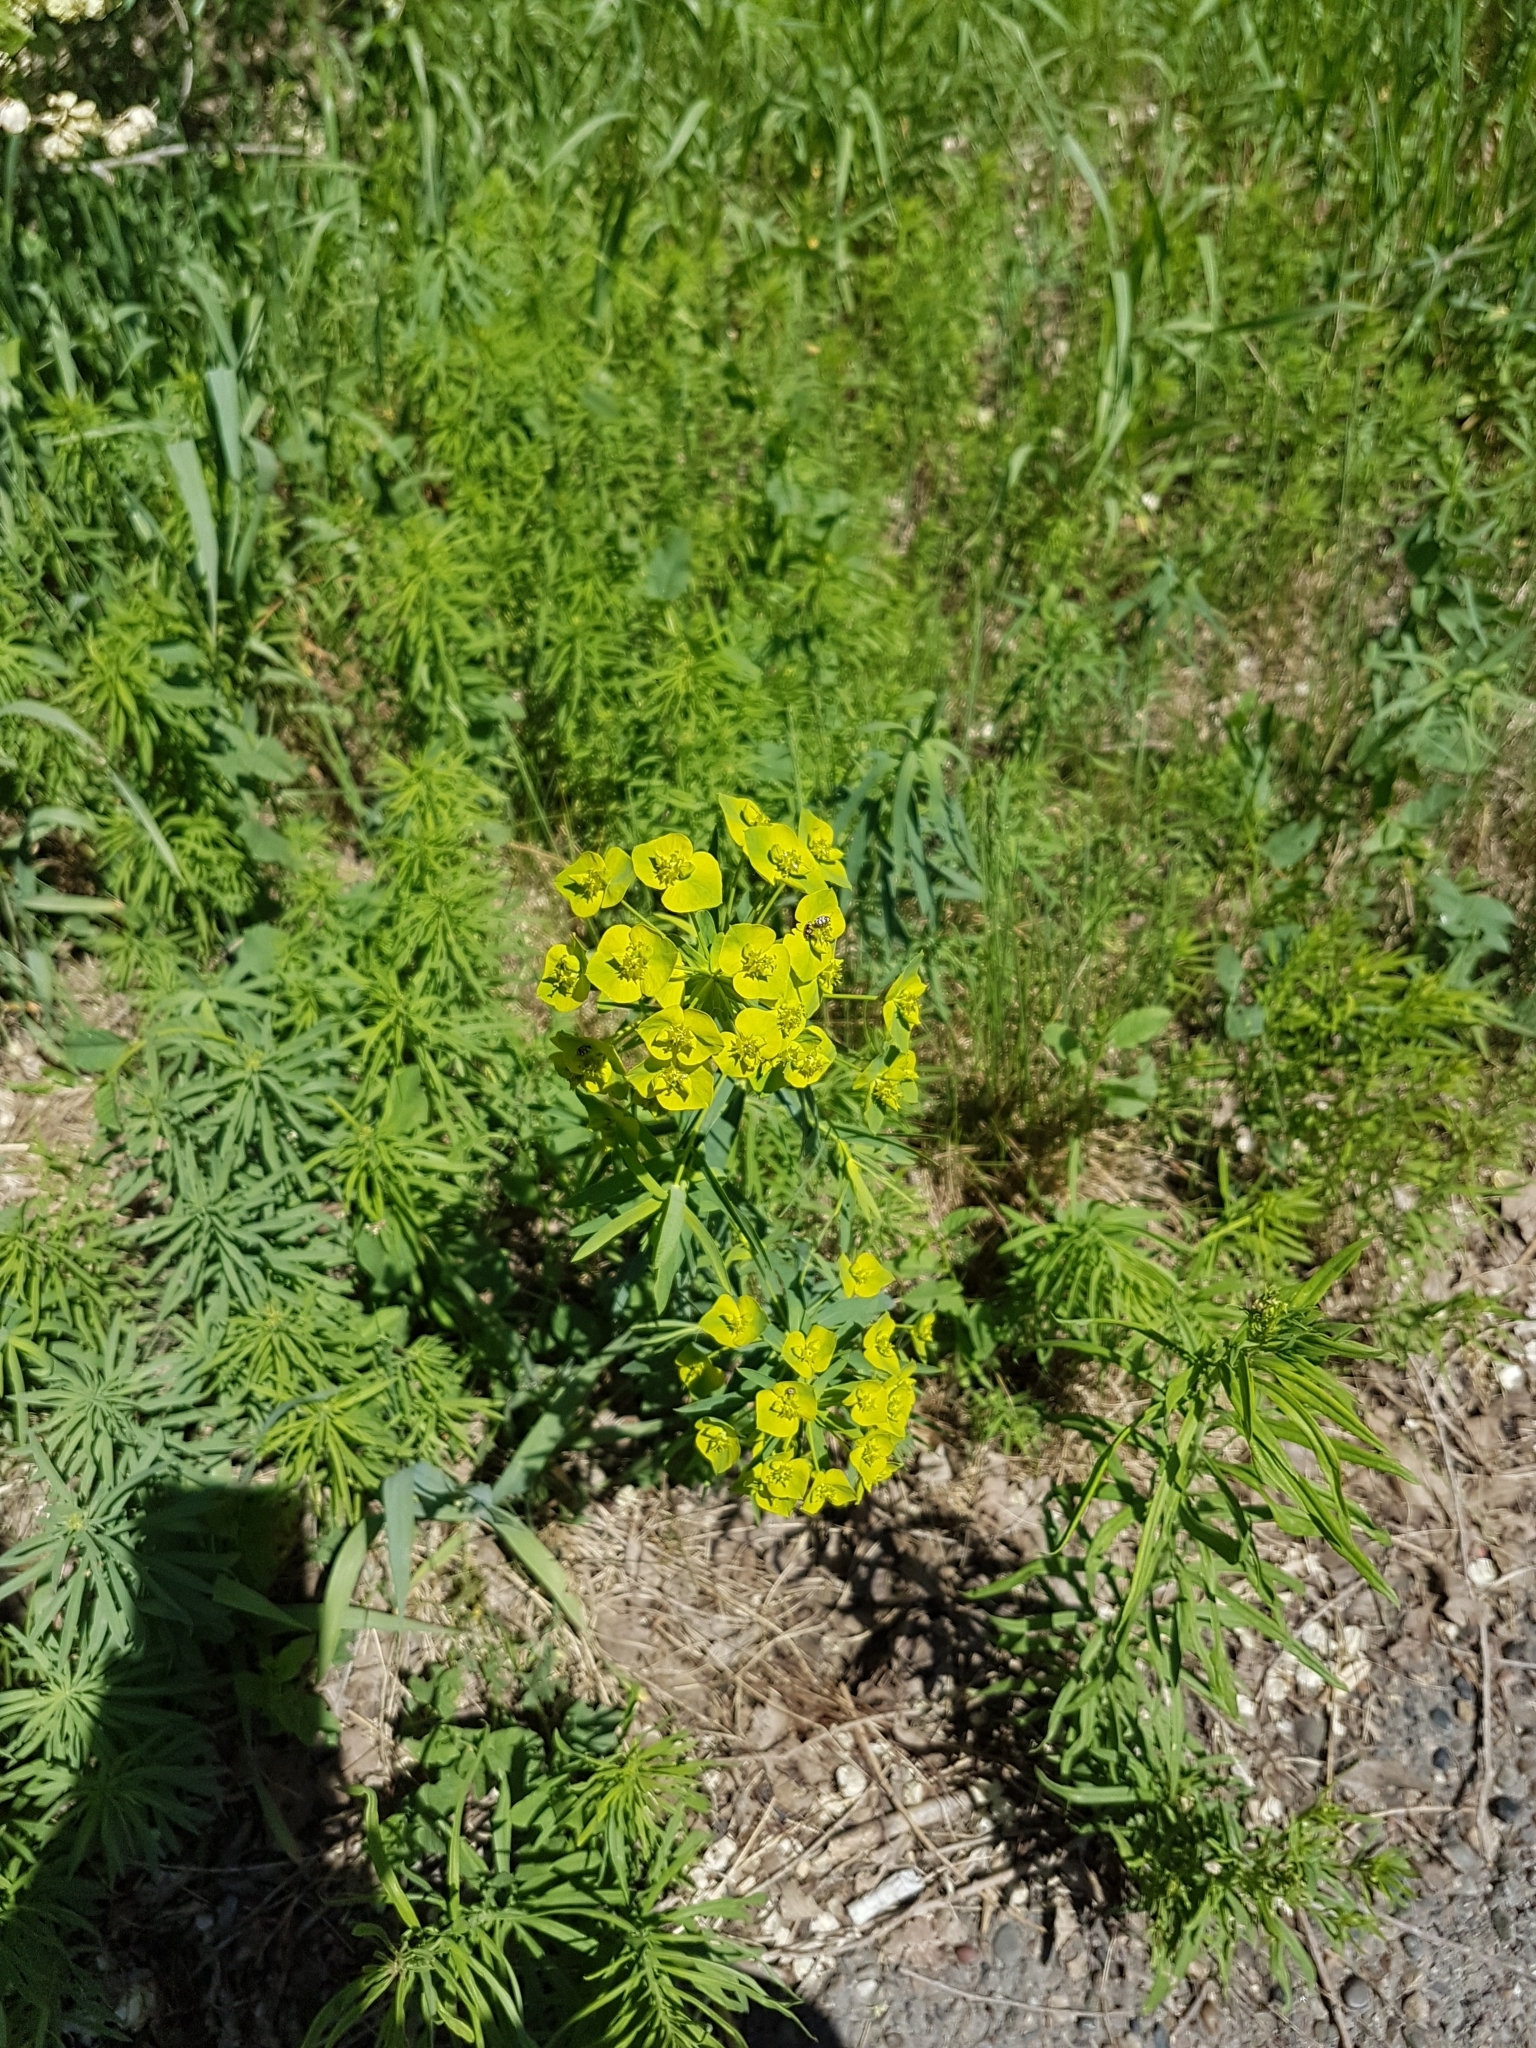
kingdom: Plantae
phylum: Tracheophyta
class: Magnoliopsida
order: Malpighiales
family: Euphorbiaceae
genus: Euphorbia
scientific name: Euphorbia virgata
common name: Leafy spurge
